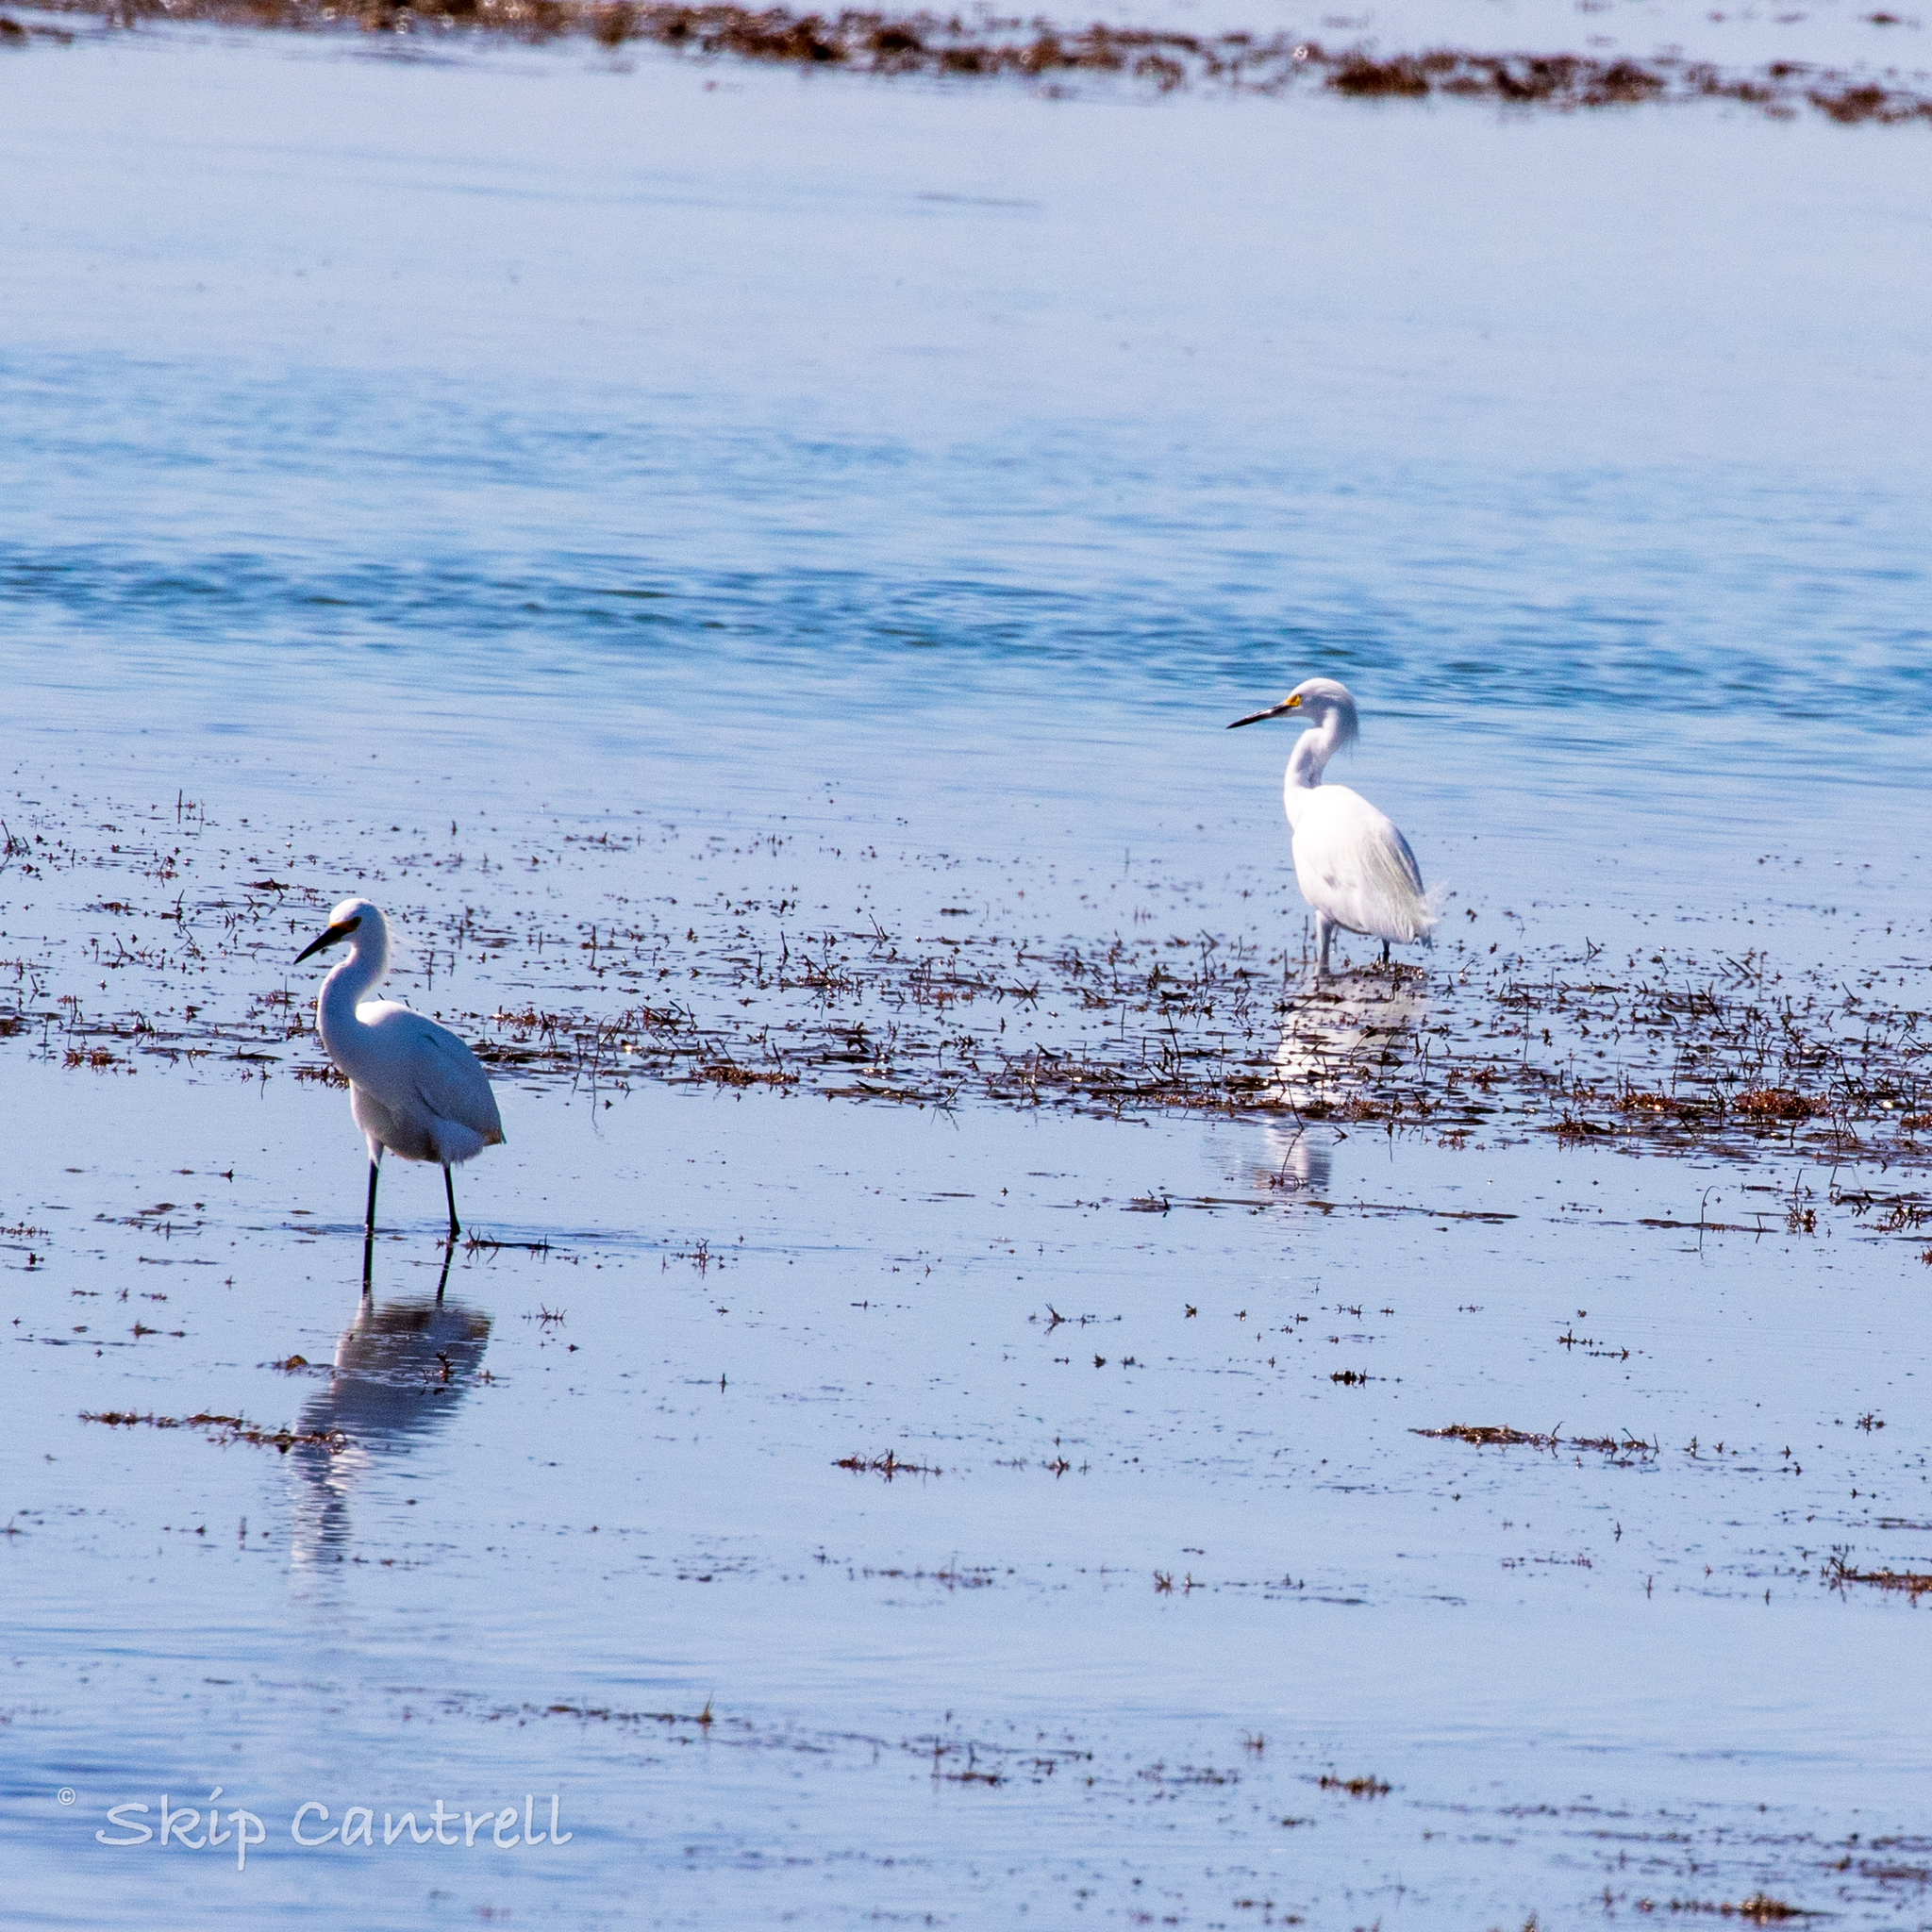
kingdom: Animalia
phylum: Chordata
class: Aves
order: Pelecaniformes
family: Ardeidae
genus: Egretta
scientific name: Egretta thula
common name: Snowy egret
